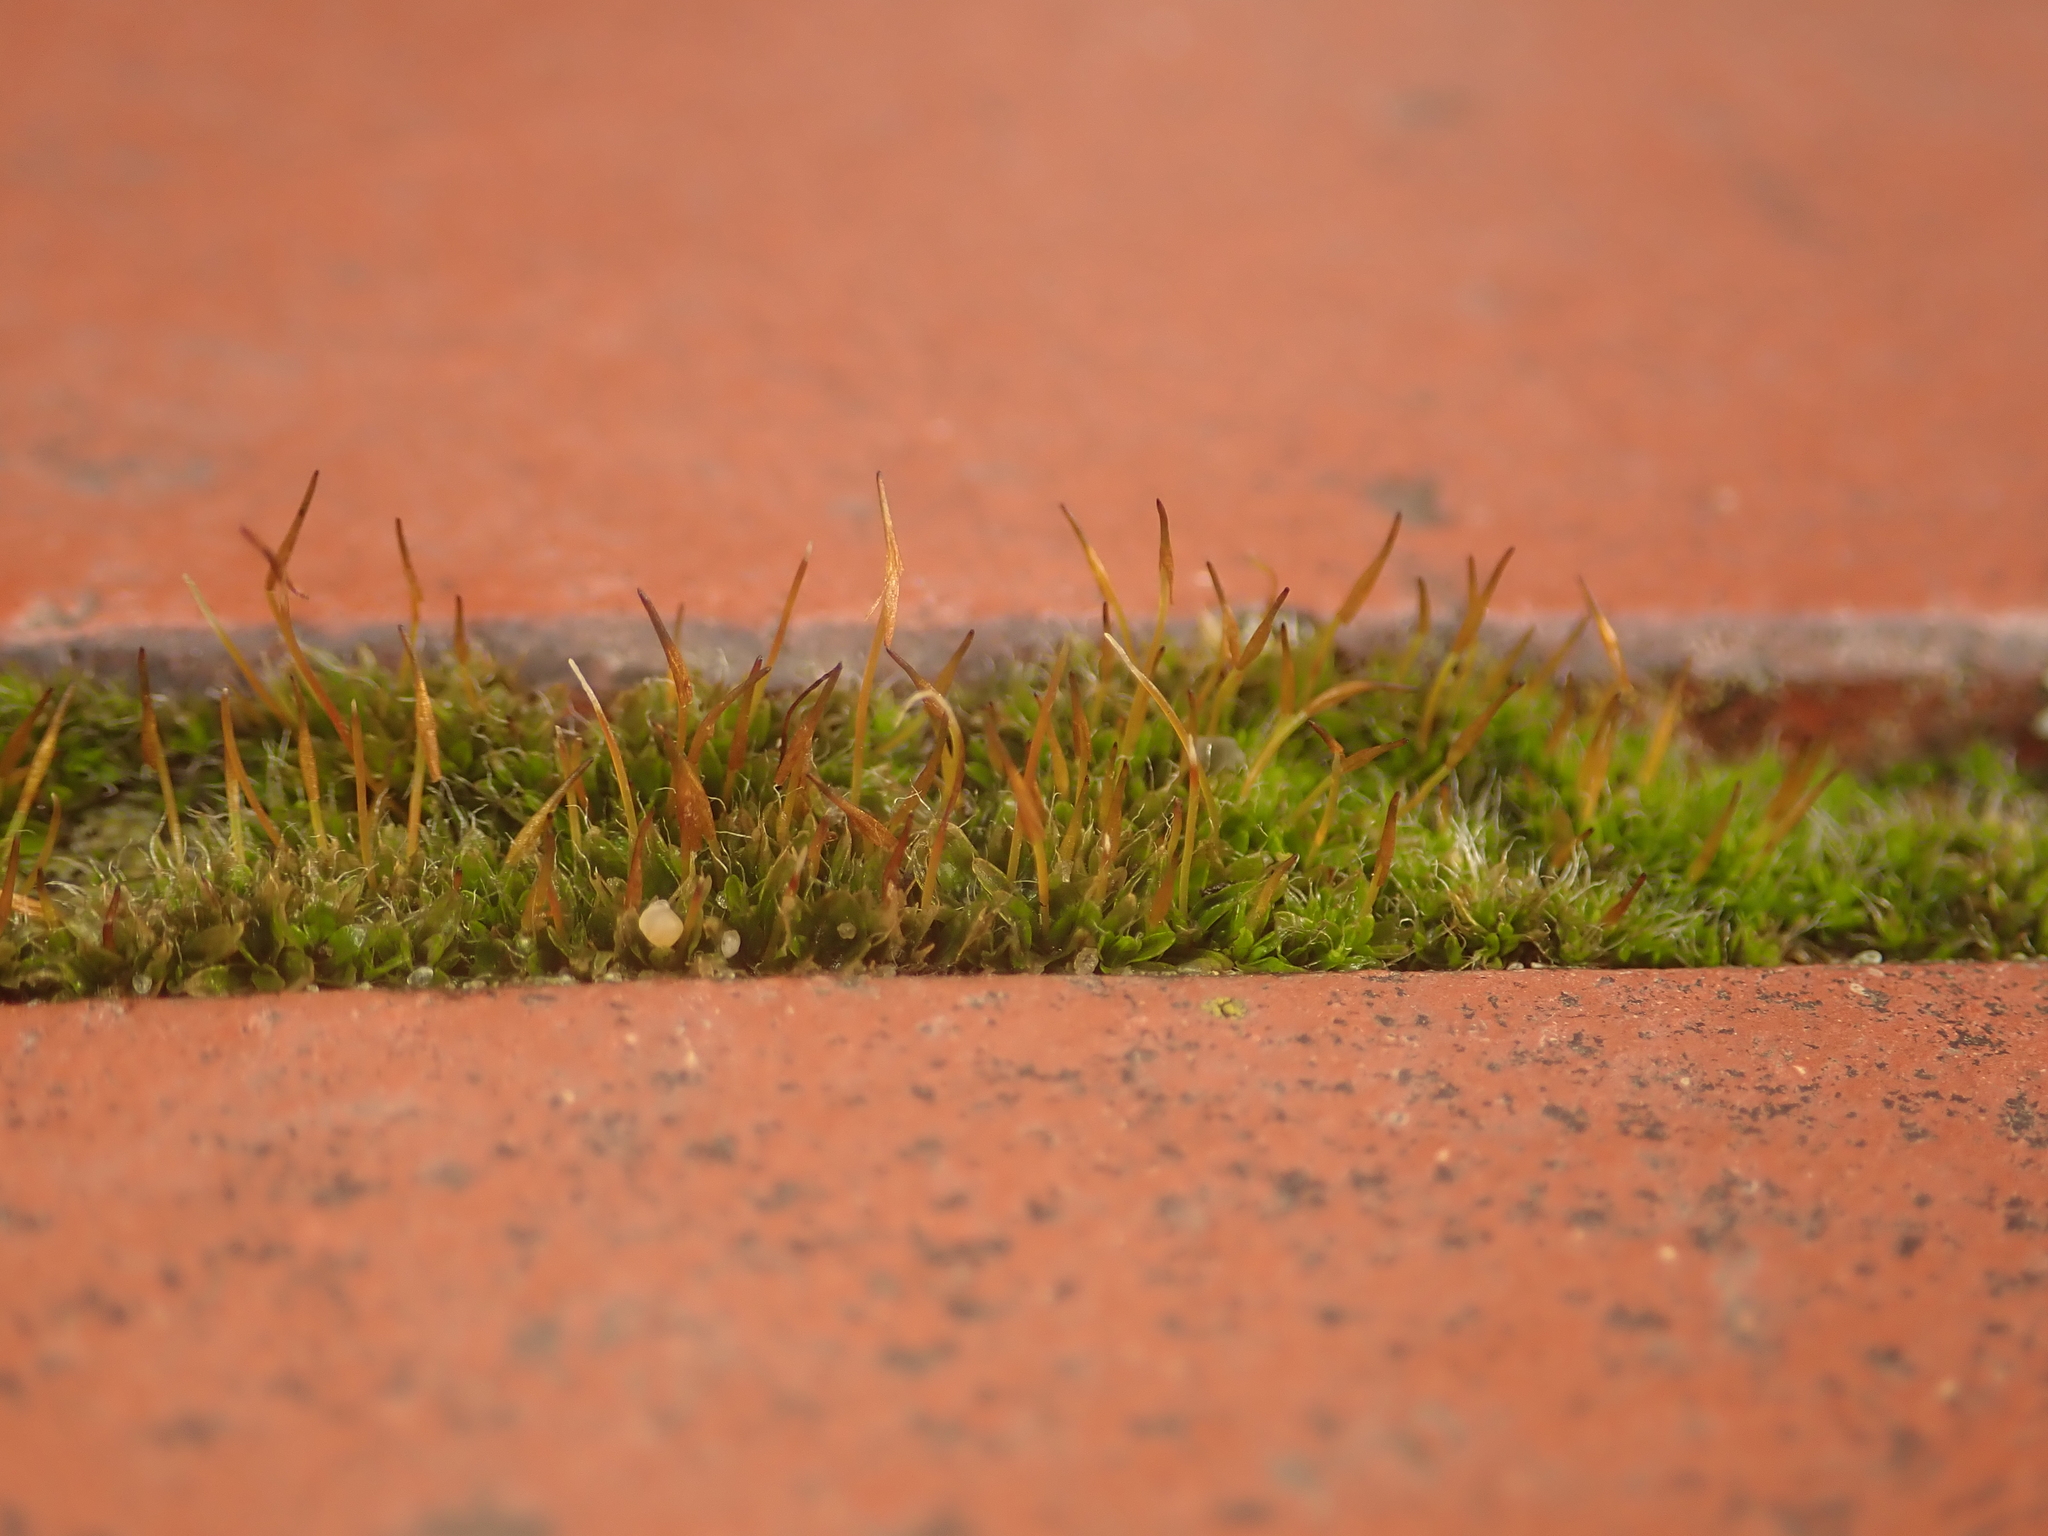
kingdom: Plantae
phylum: Bryophyta
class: Bryopsida
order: Pottiales
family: Pottiaceae
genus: Tortula
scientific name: Tortula muralis
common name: Wall screw-moss
